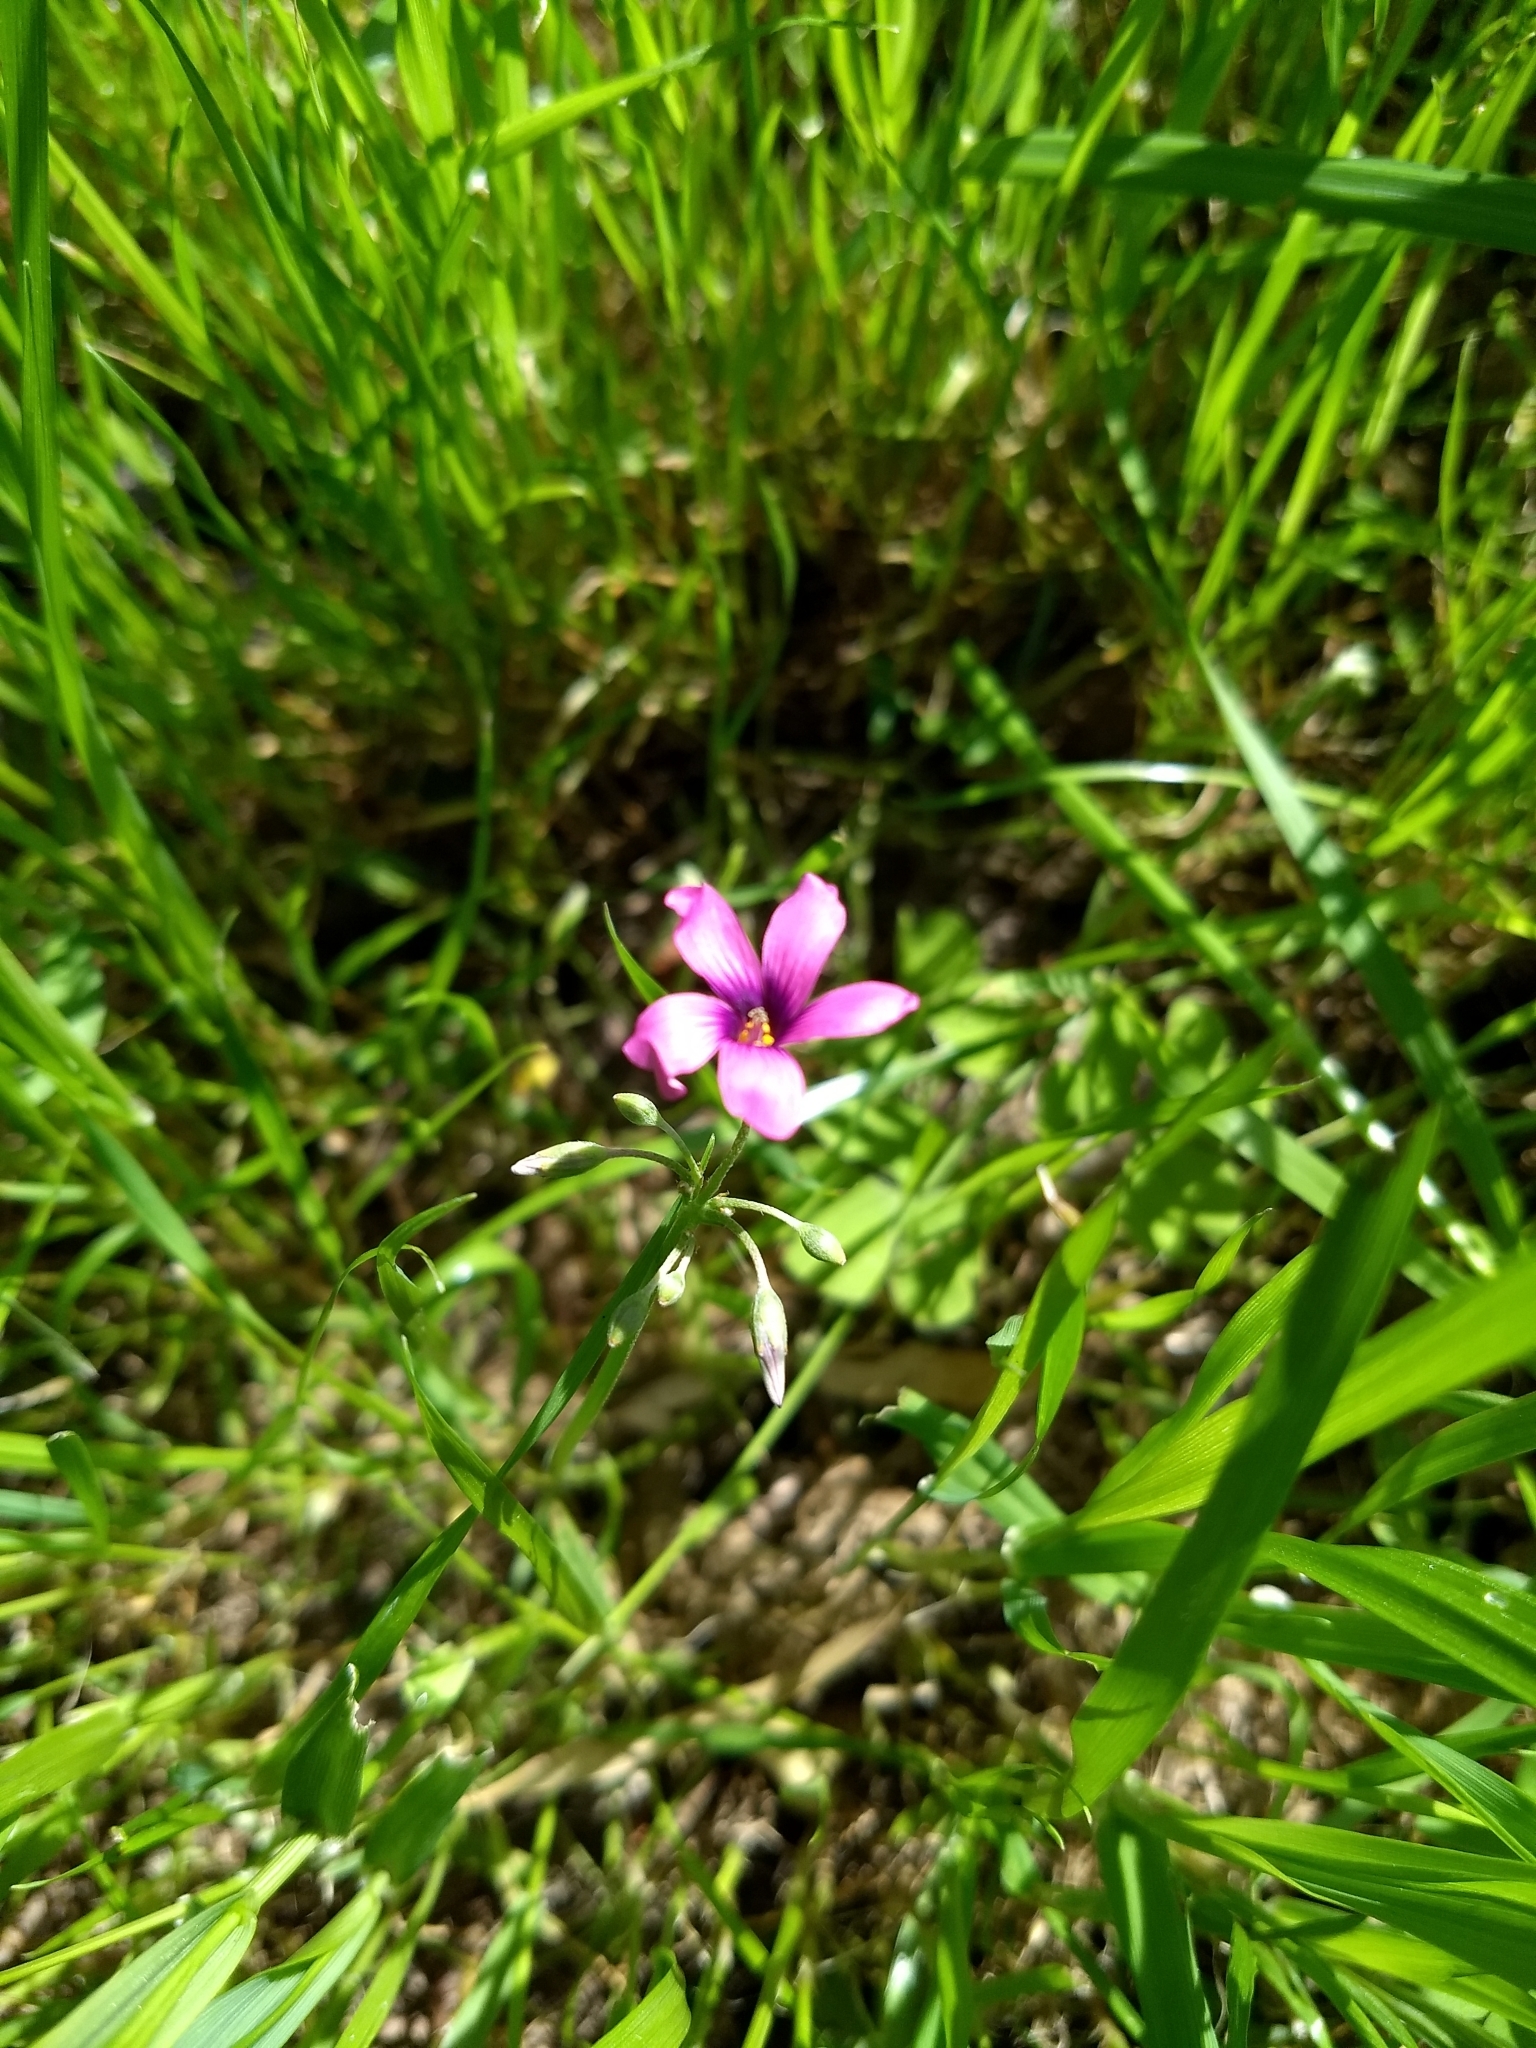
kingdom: Plantae
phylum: Tracheophyta
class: Magnoliopsida
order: Oxalidales
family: Oxalidaceae
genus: Oxalis
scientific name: Oxalis articulata
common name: Pink-sorrel
